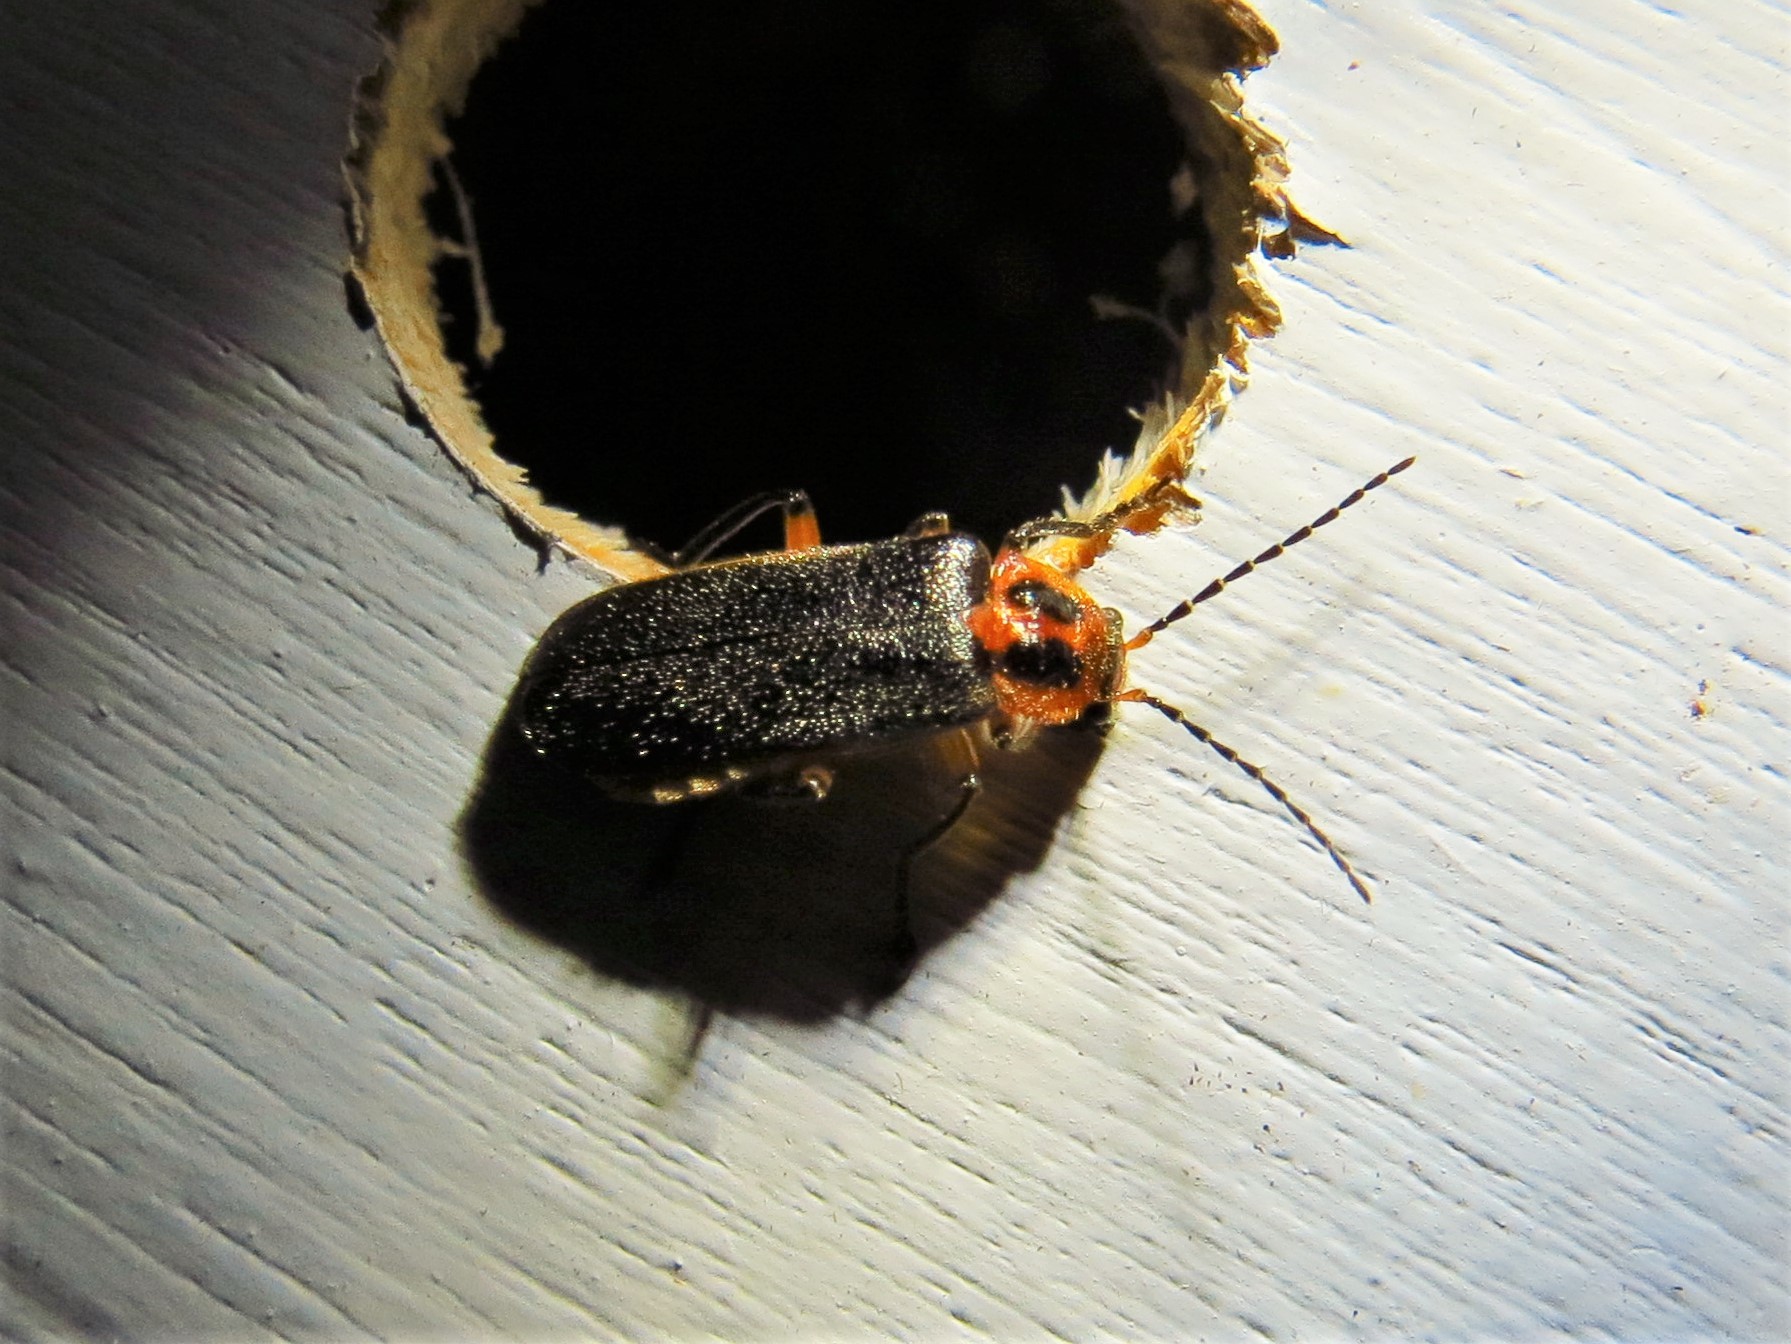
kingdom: Animalia
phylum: Arthropoda
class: Insecta
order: Coleoptera
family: Cantharidae
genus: Atalantycha
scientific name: Atalantycha bilineata
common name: Two-lined leatherwing
